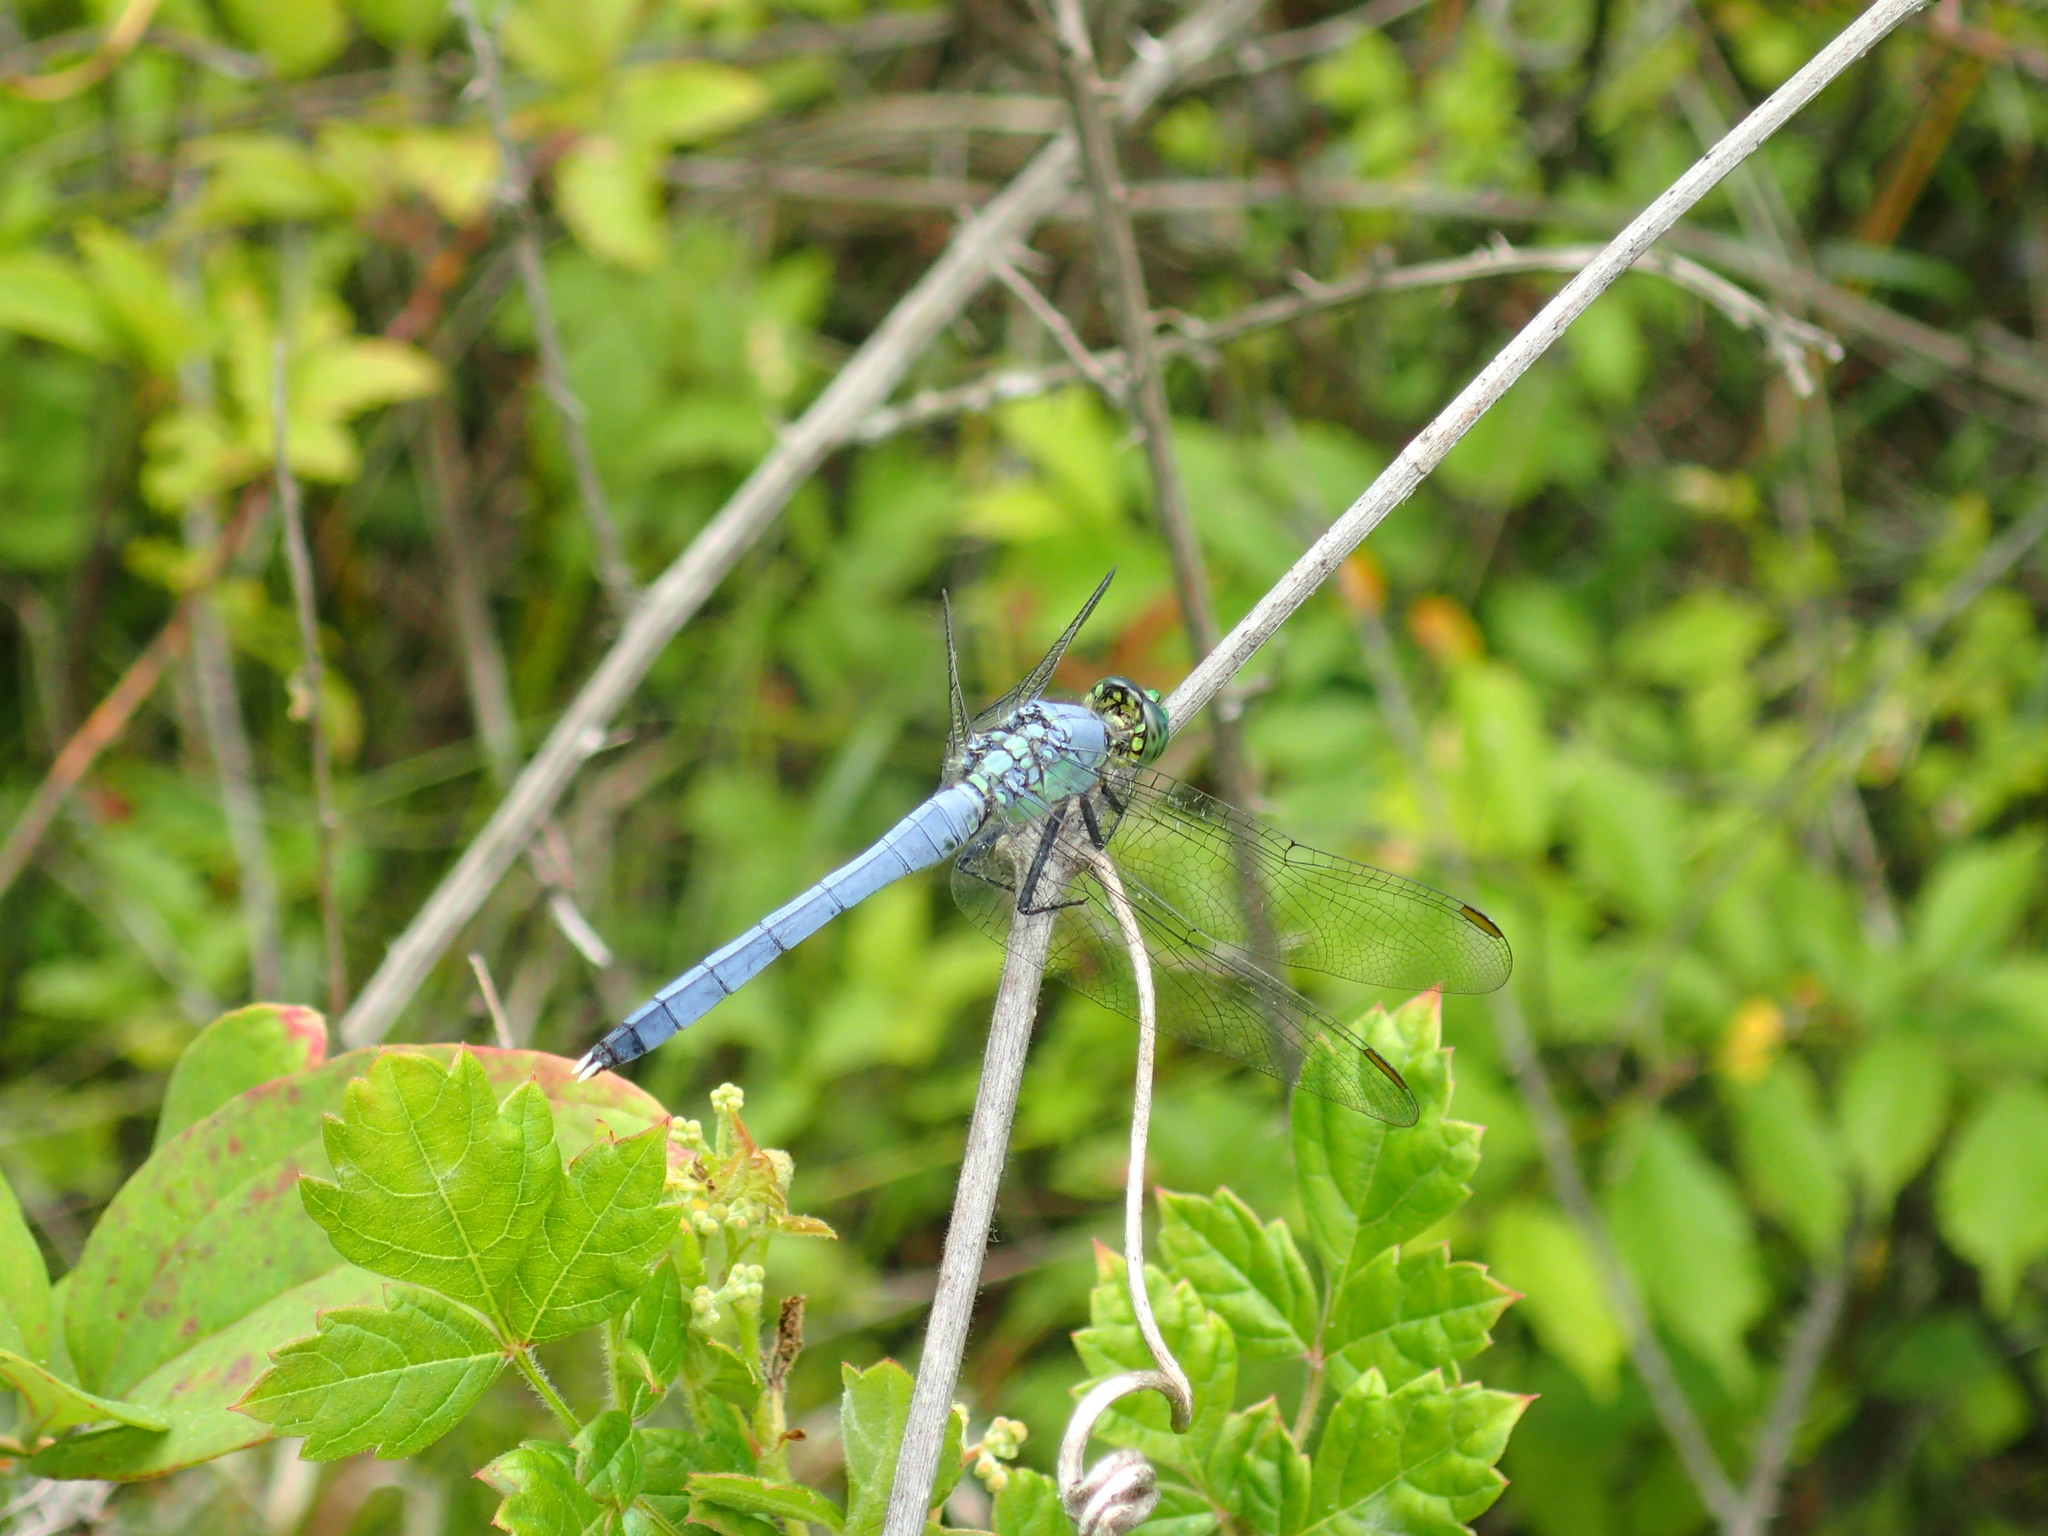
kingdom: Animalia
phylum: Arthropoda
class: Insecta
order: Odonata
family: Libellulidae
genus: Erythemis
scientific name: Erythemis simplicicollis
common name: Eastern pondhawk
